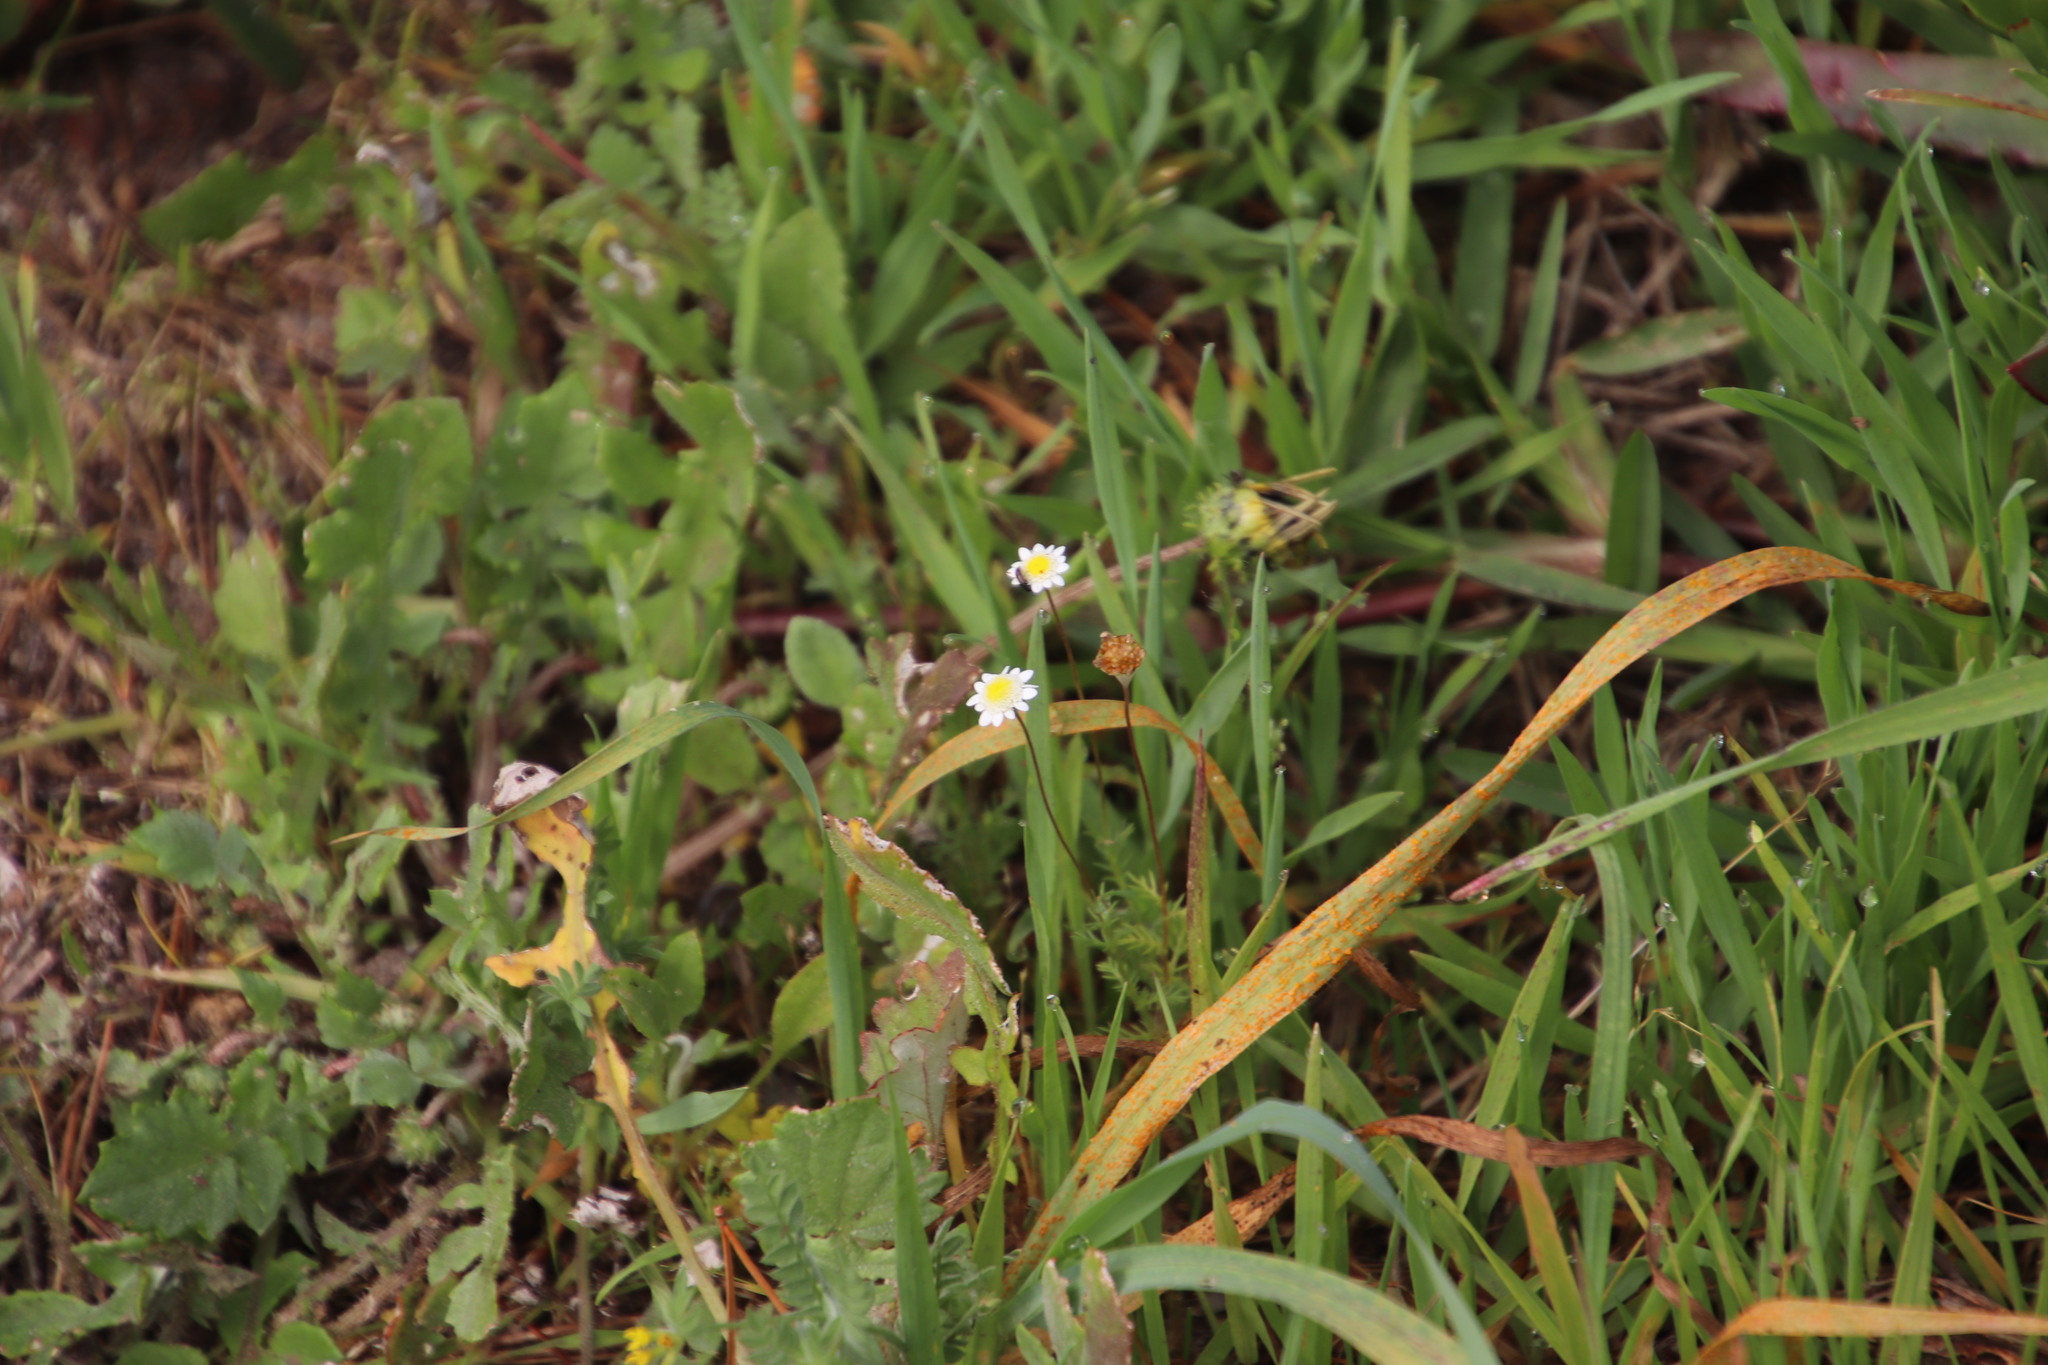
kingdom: Plantae
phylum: Tracheophyta
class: Magnoliopsida
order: Asterales
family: Asteraceae
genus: Cotula
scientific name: Cotula turbinata
